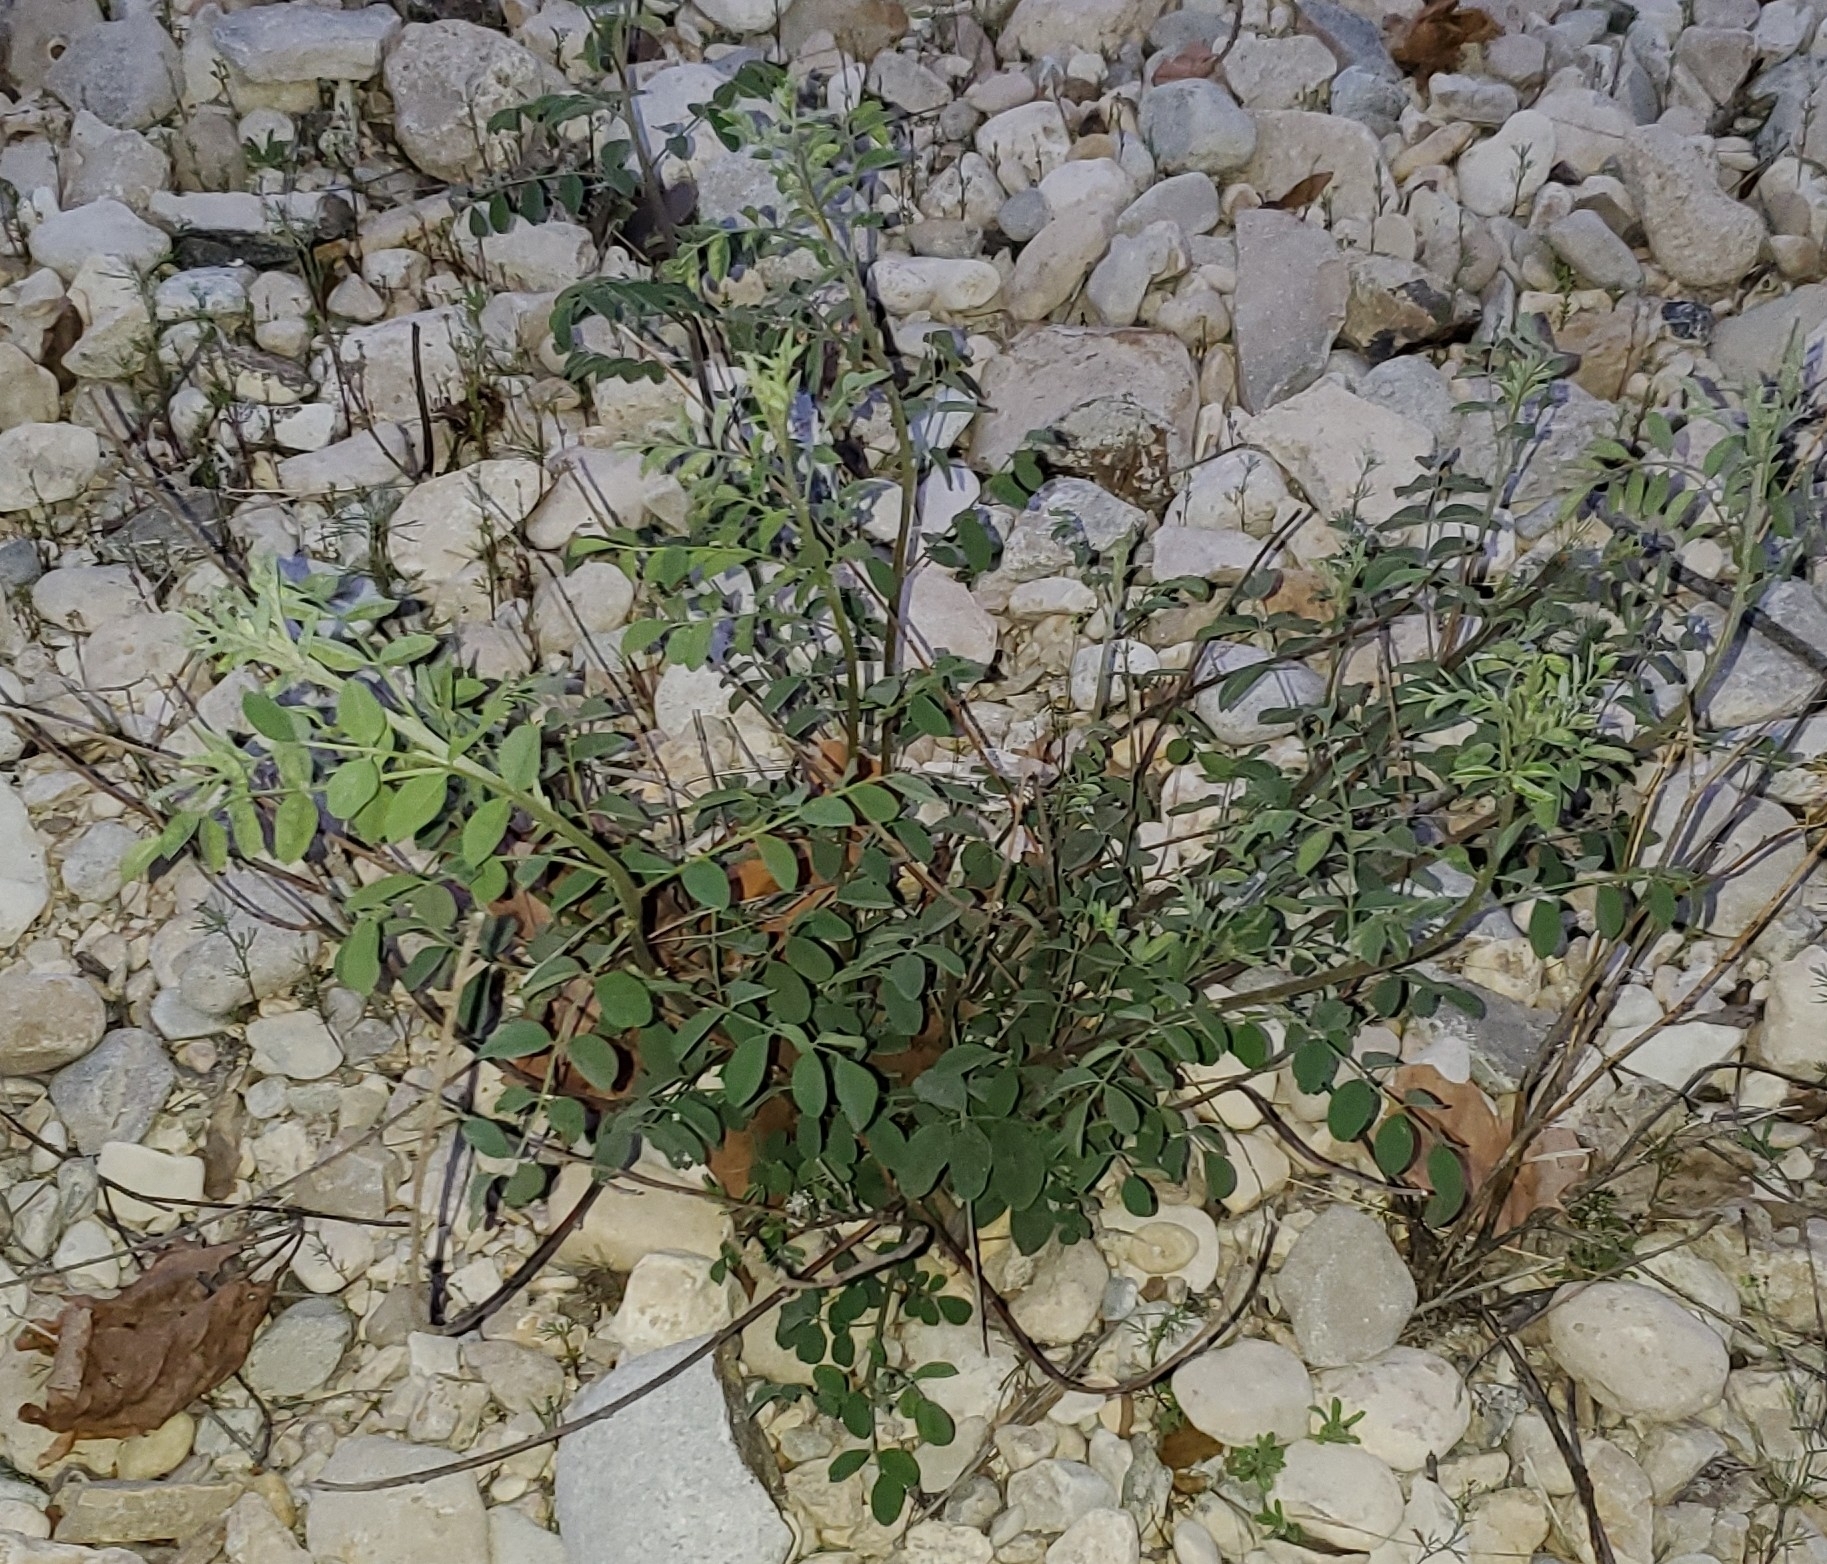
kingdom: Plantae
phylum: Tracheophyta
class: Magnoliopsida
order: Fabales
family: Fabaceae
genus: Indigofera
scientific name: Indigofera lindheimeriana
